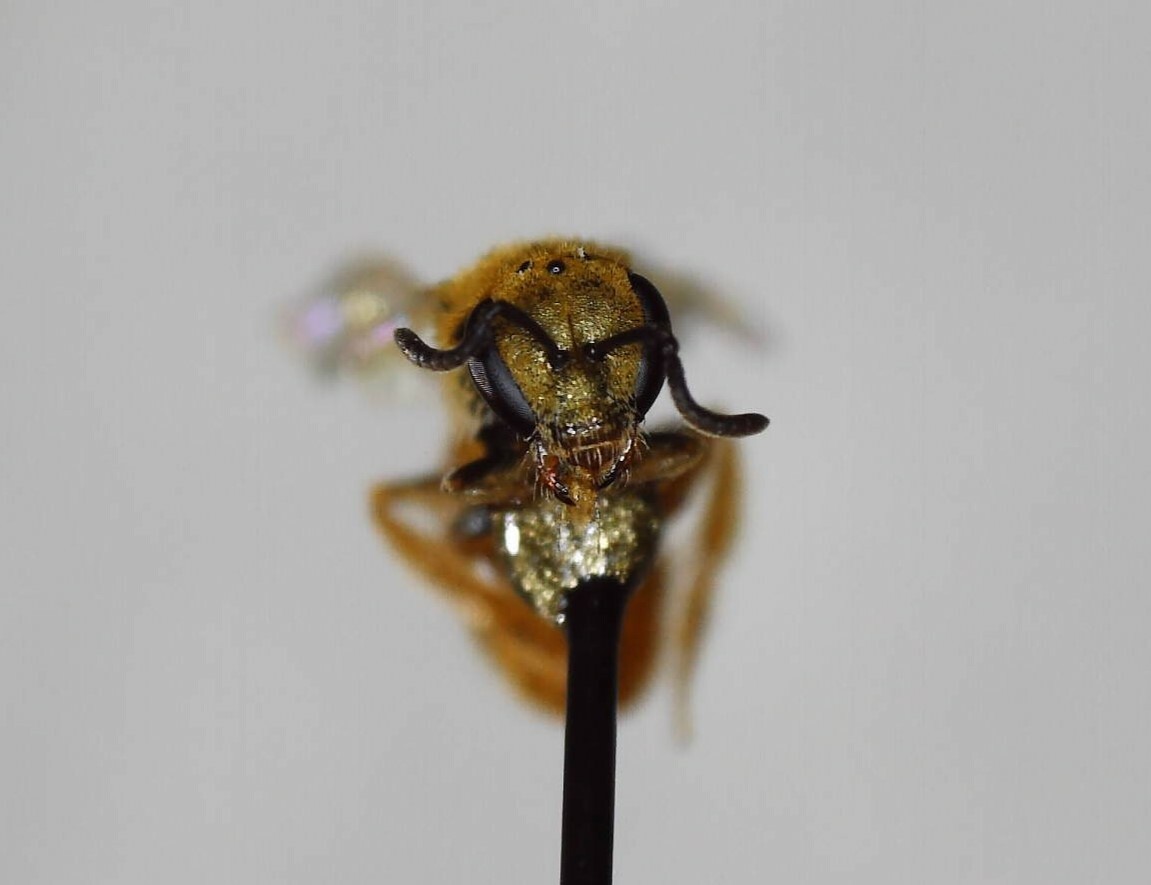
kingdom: Animalia
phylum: Arthropoda
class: Insecta
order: Hymenoptera
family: Halictidae
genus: Lasioglossum
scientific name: Lasioglossum vierecki
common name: Viereck's sweat bee
